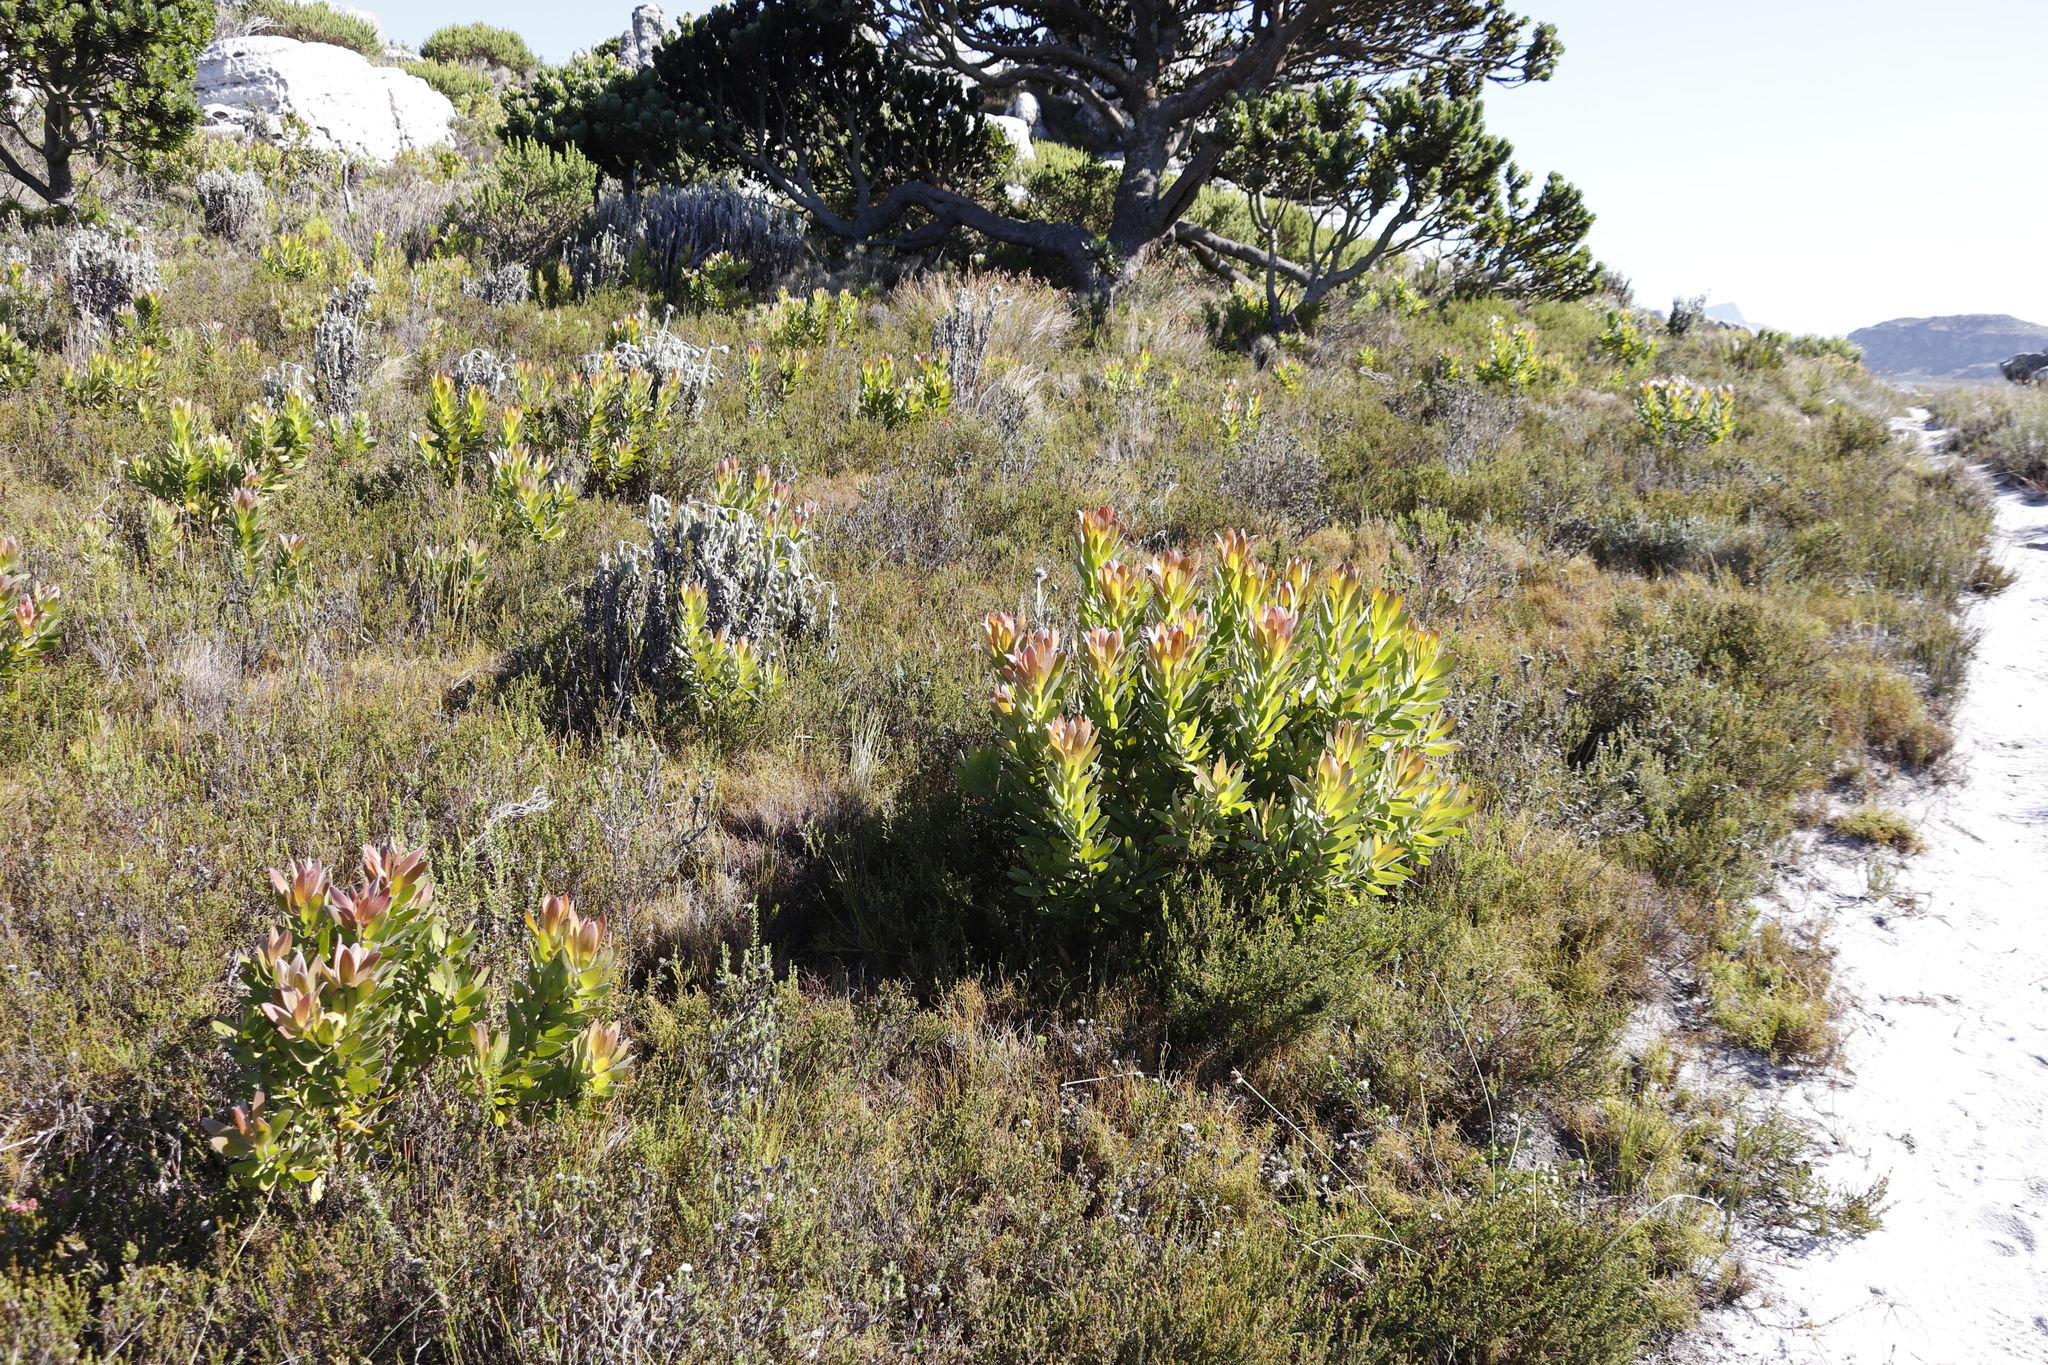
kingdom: Plantae
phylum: Tracheophyta
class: Magnoliopsida
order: Proteales
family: Proteaceae
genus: Leucadendron
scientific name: Leucadendron laureolum
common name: Golden sunshinebush
